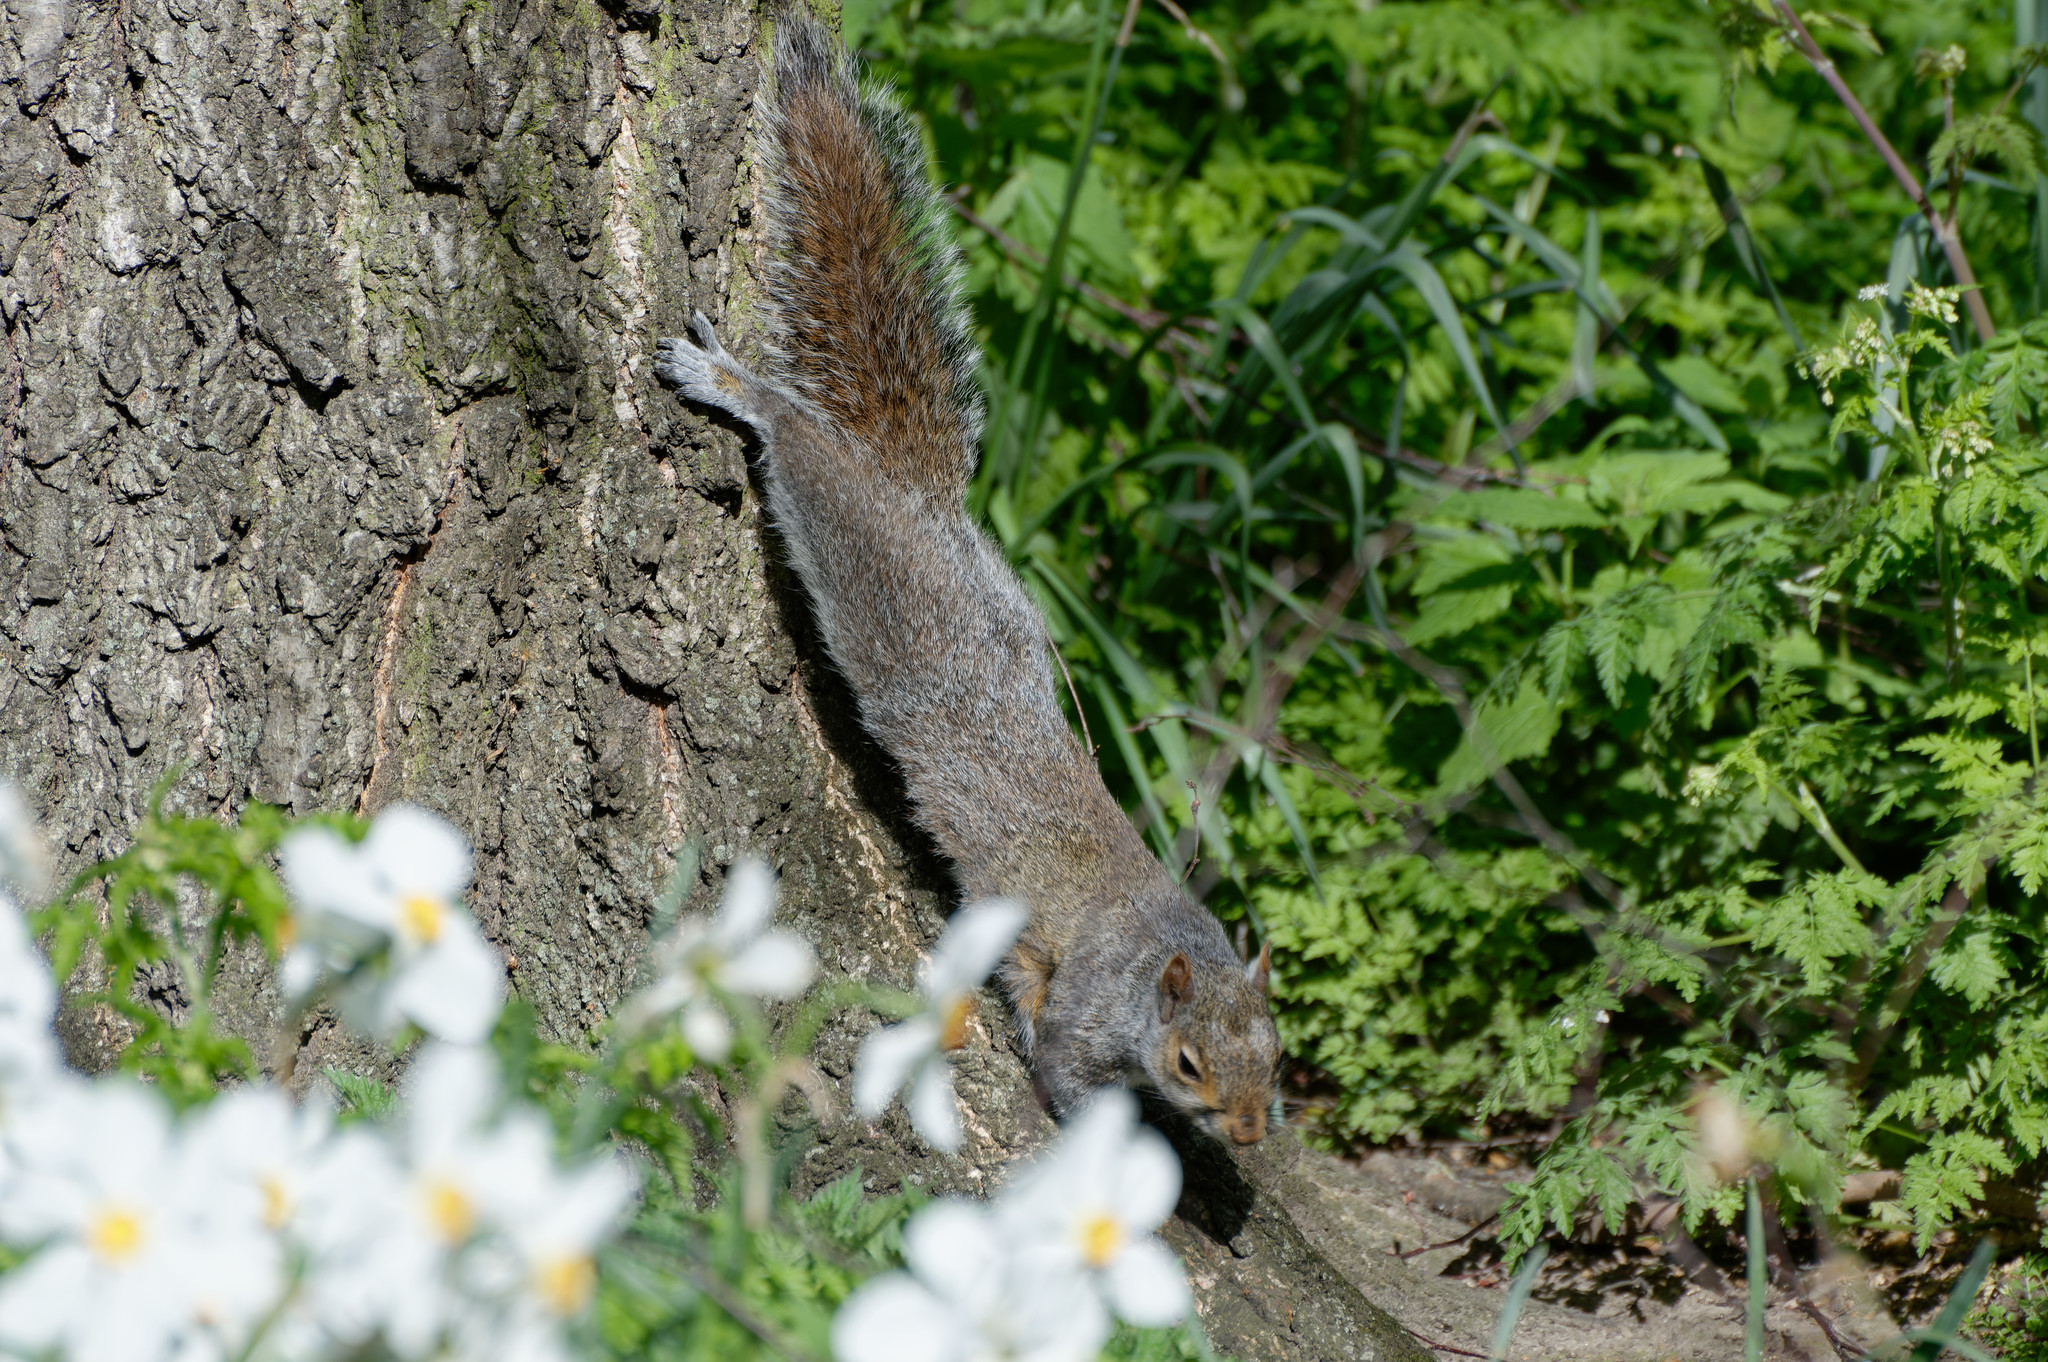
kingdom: Animalia
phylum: Chordata
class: Mammalia
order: Rodentia
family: Sciuridae
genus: Sciurus
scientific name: Sciurus carolinensis
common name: Eastern gray squirrel
